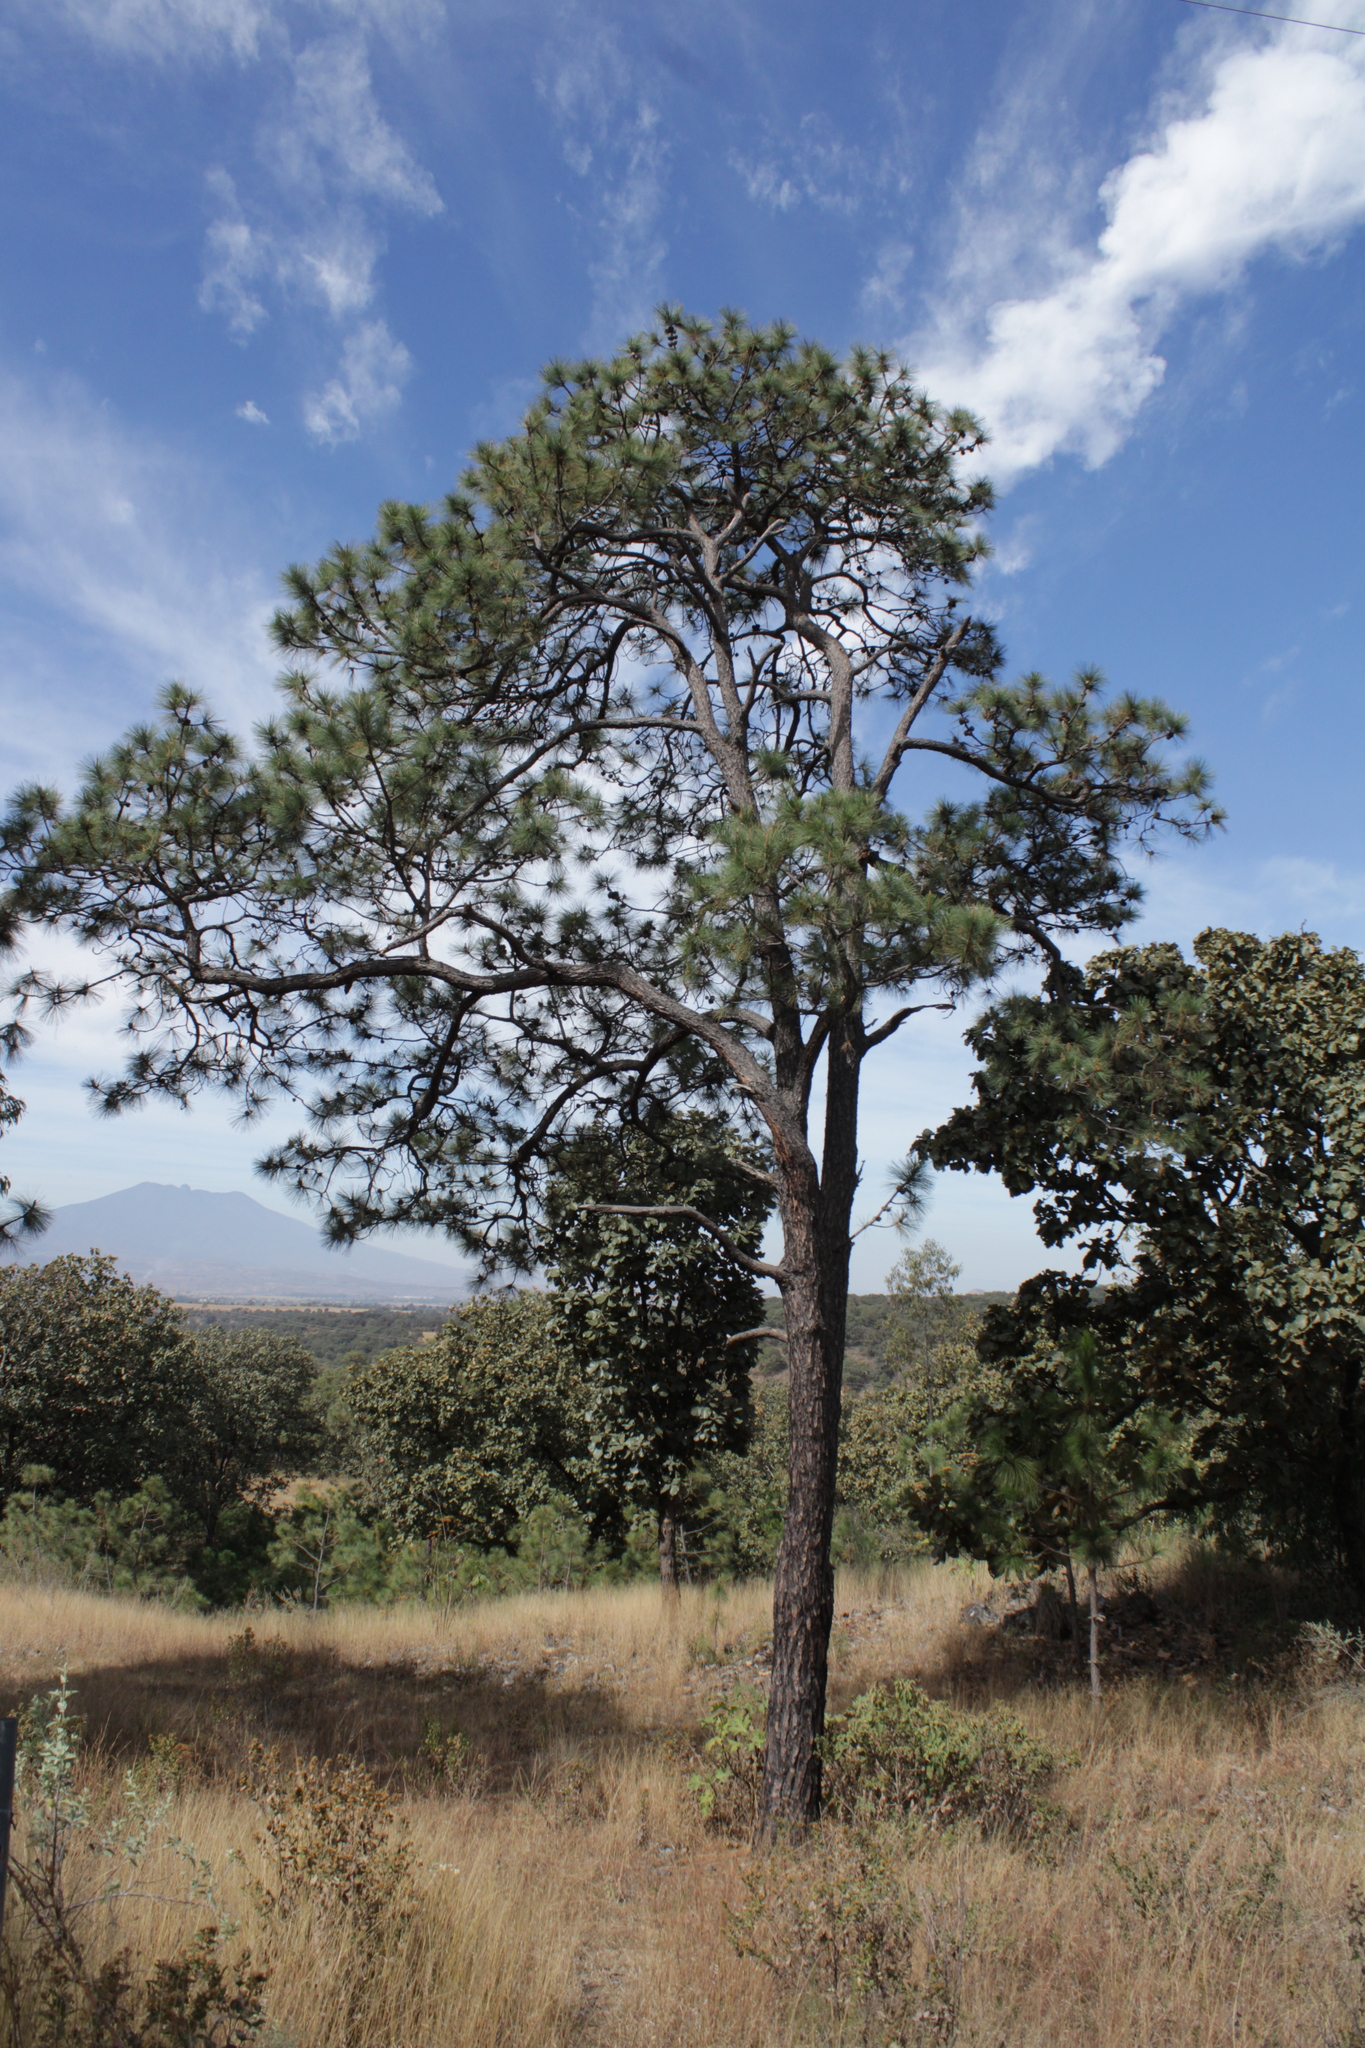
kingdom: Plantae
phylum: Tracheophyta
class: Pinopsida
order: Pinales
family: Pinaceae
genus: Pinus
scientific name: Pinus oocarpa
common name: Egg-cone pine
